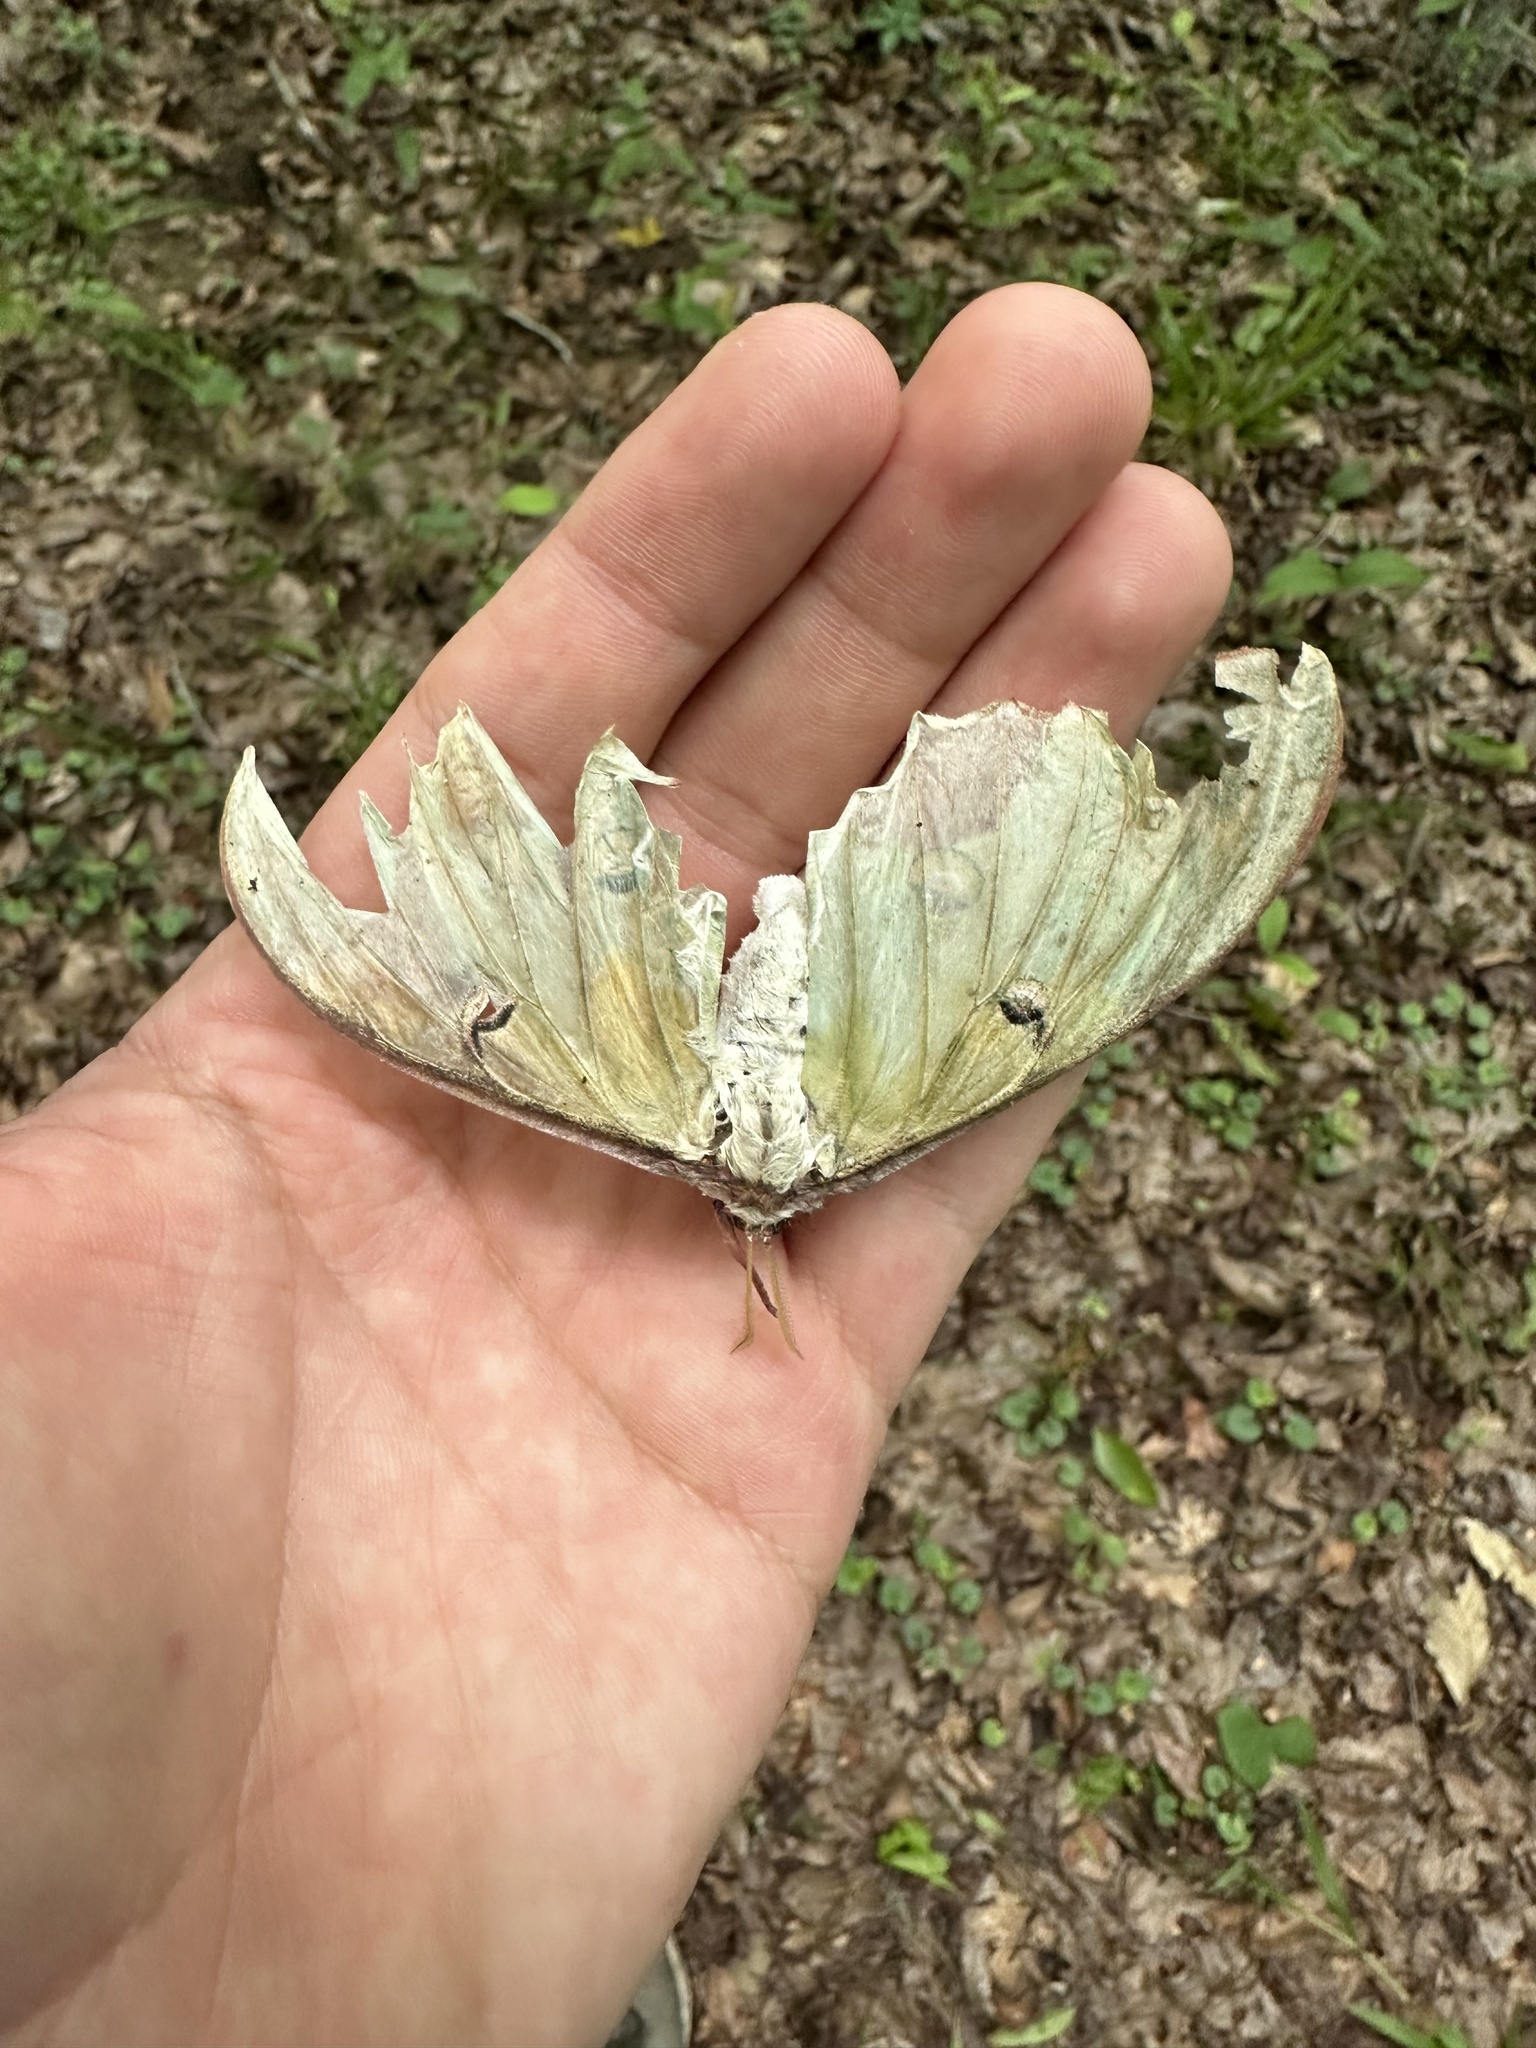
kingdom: Animalia
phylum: Arthropoda
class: Insecta
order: Lepidoptera
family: Saturniidae
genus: Actias
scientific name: Actias luna
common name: Luna moth
